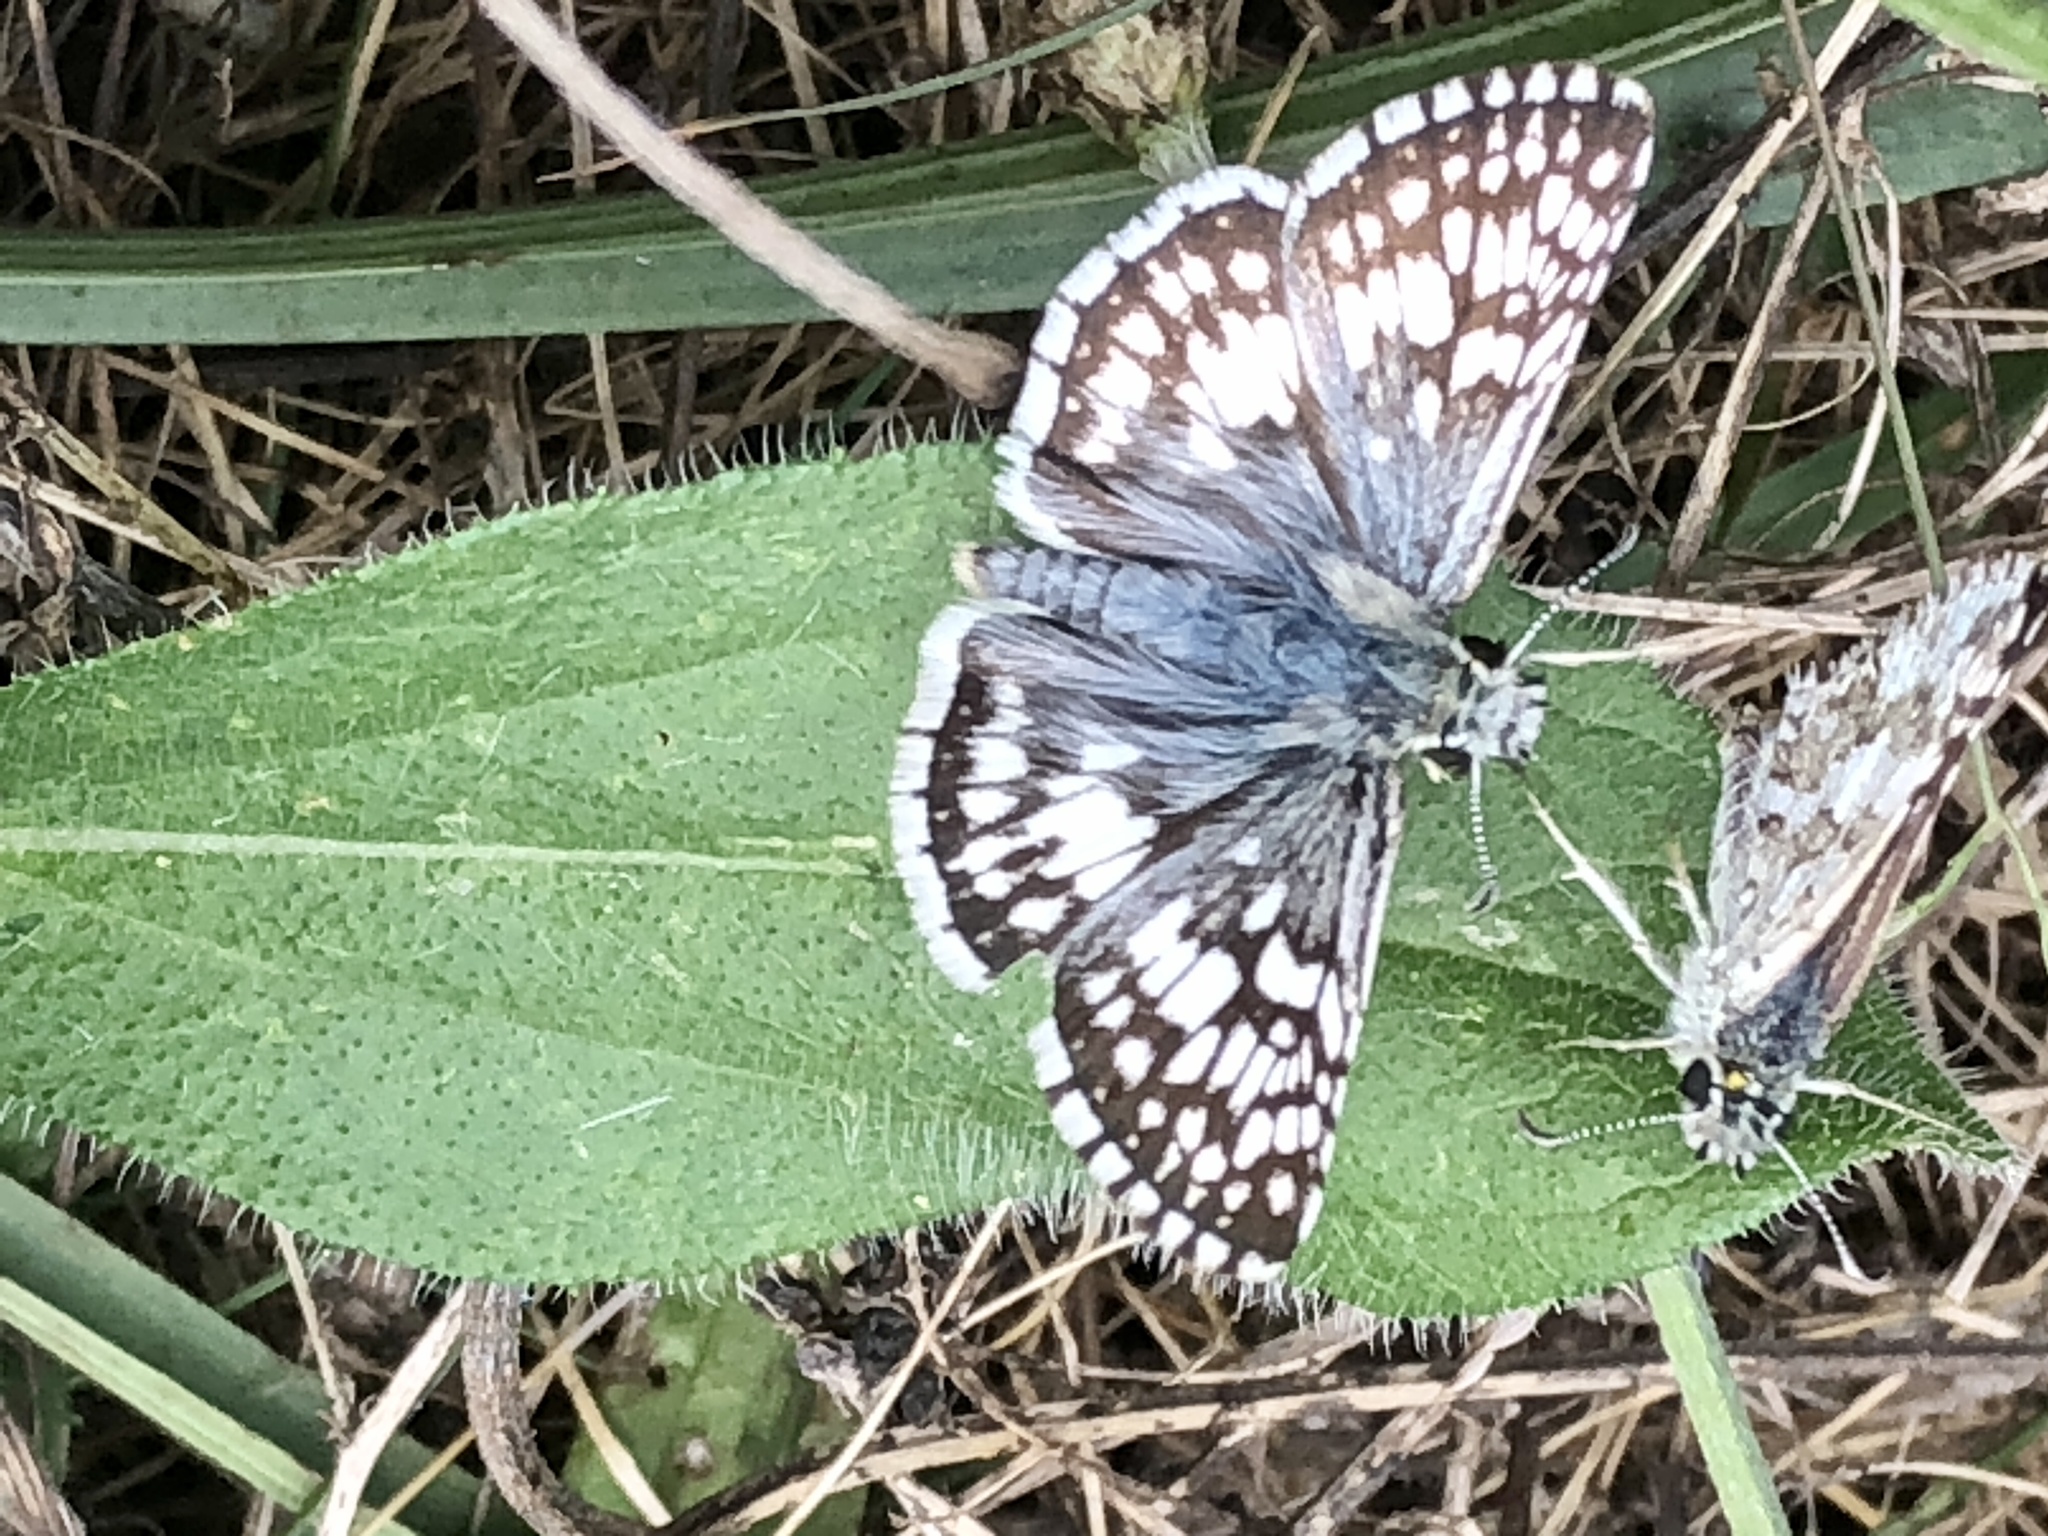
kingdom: Animalia
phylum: Arthropoda
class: Insecta
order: Lepidoptera
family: Hesperiidae
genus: Burnsius
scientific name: Burnsius communis
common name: Common checkered-skipper
